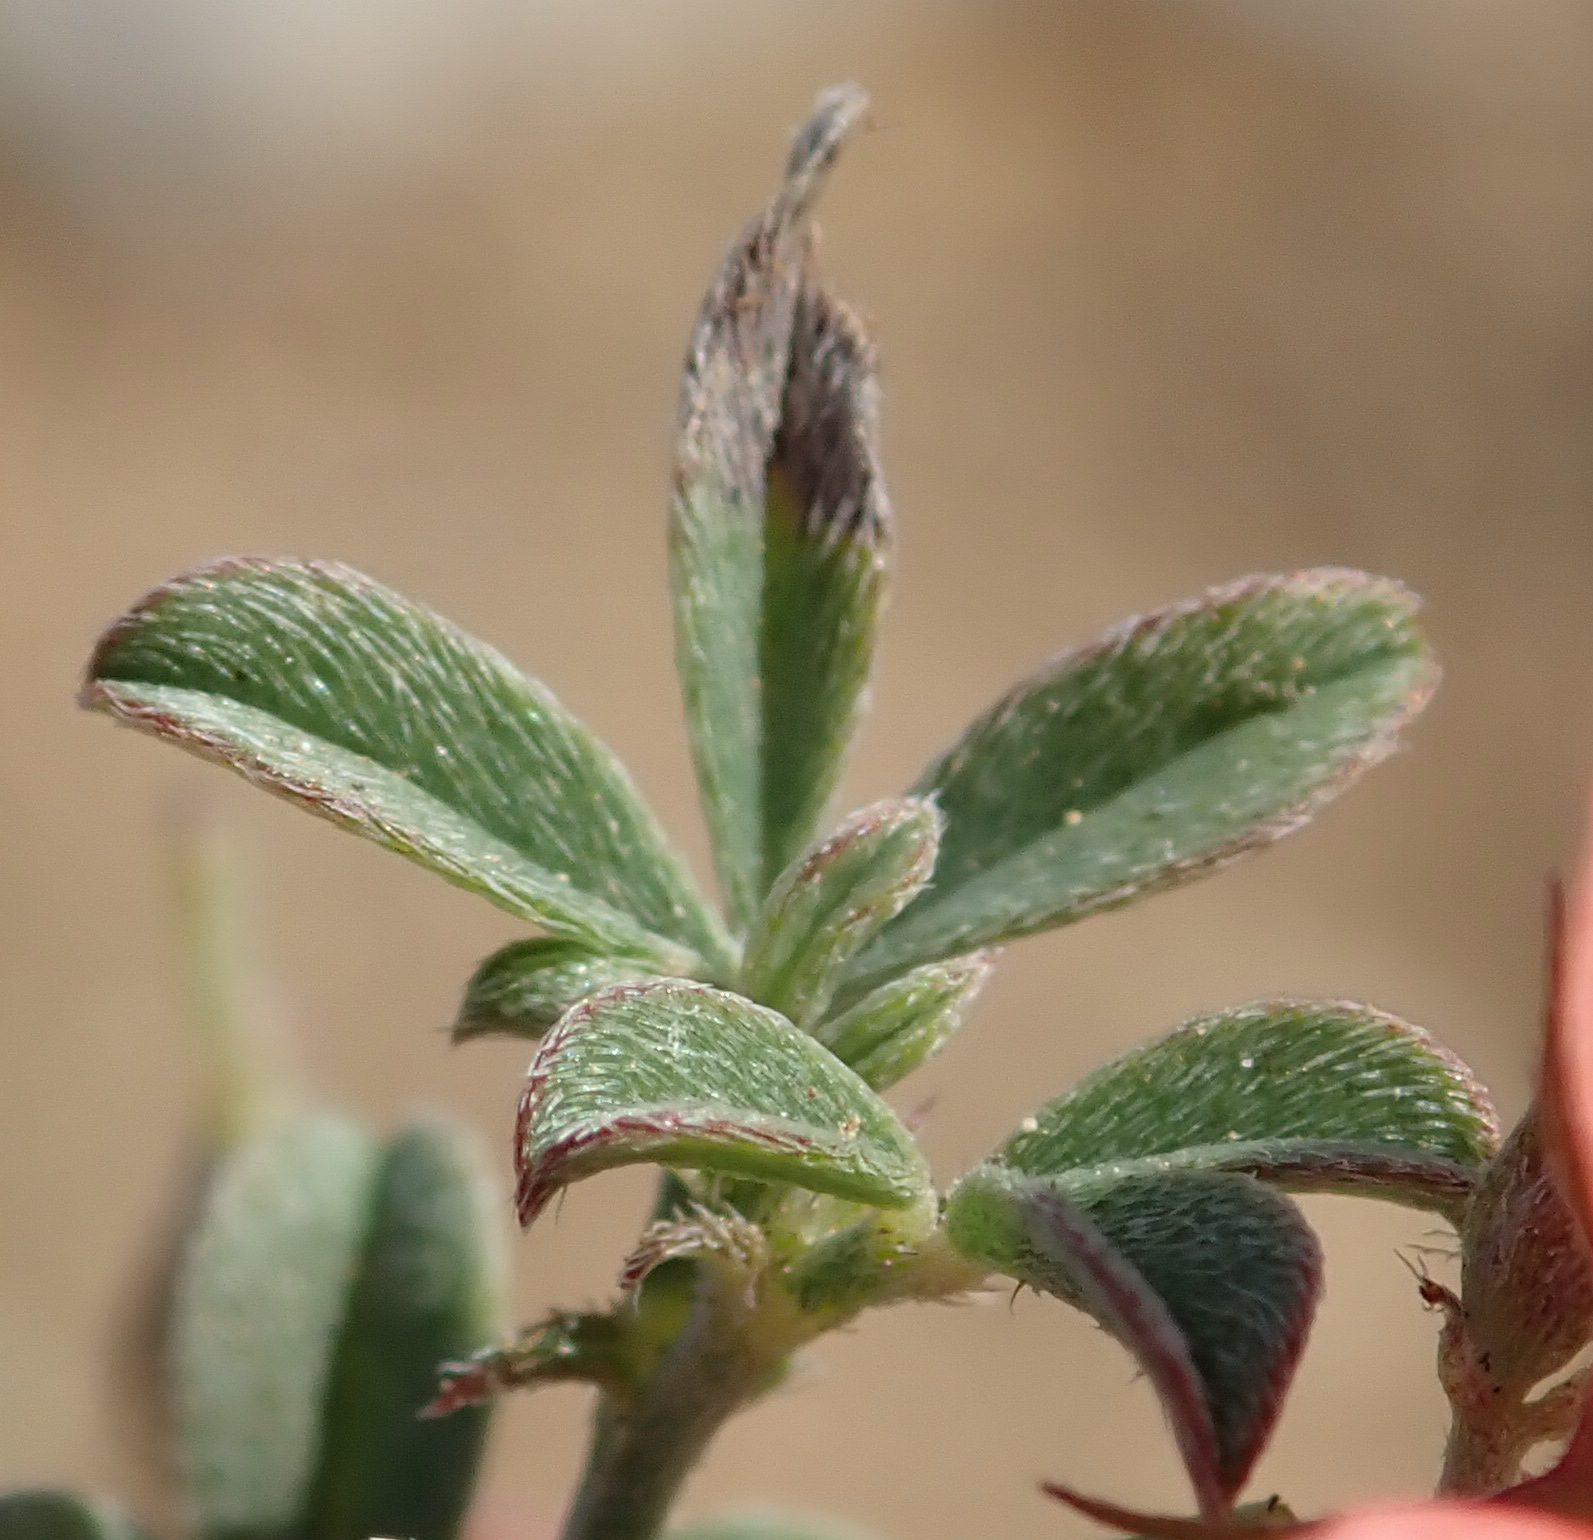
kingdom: Plantae
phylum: Tracheophyta
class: Magnoliopsida
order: Fabales
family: Fabaceae
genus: Indigofera
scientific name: Indigofera priorii
